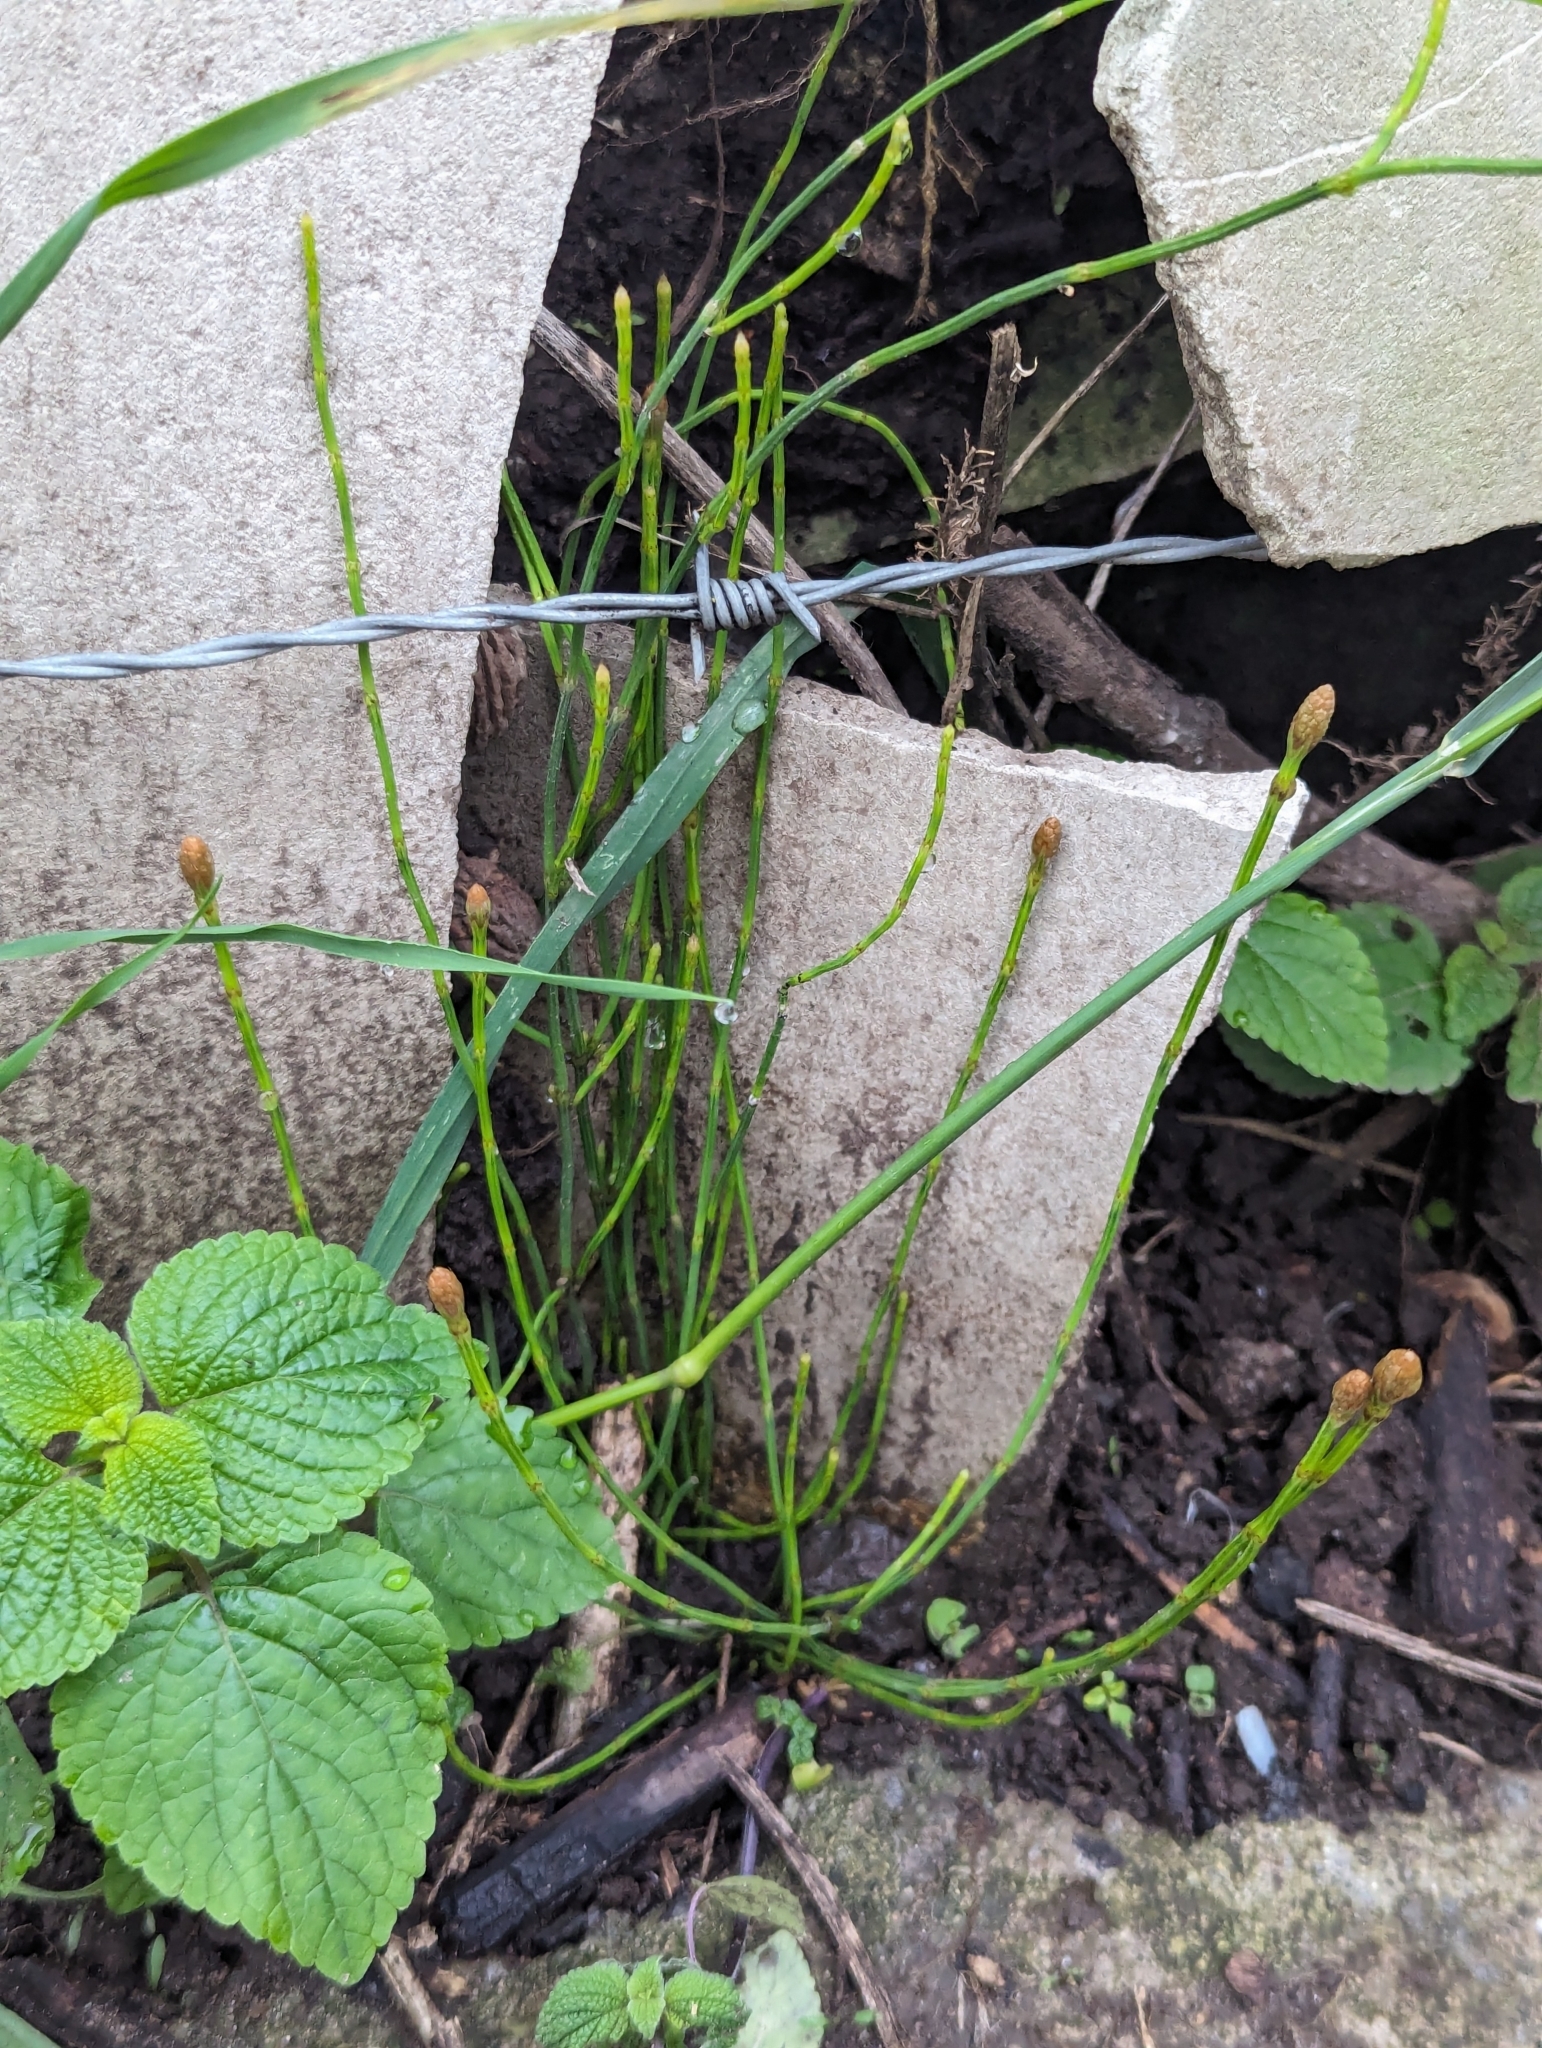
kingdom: Plantae
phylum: Tracheophyta
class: Polypodiopsida
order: Equisetales
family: Equisetaceae
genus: Equisetum
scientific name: Equisetum bogotense
